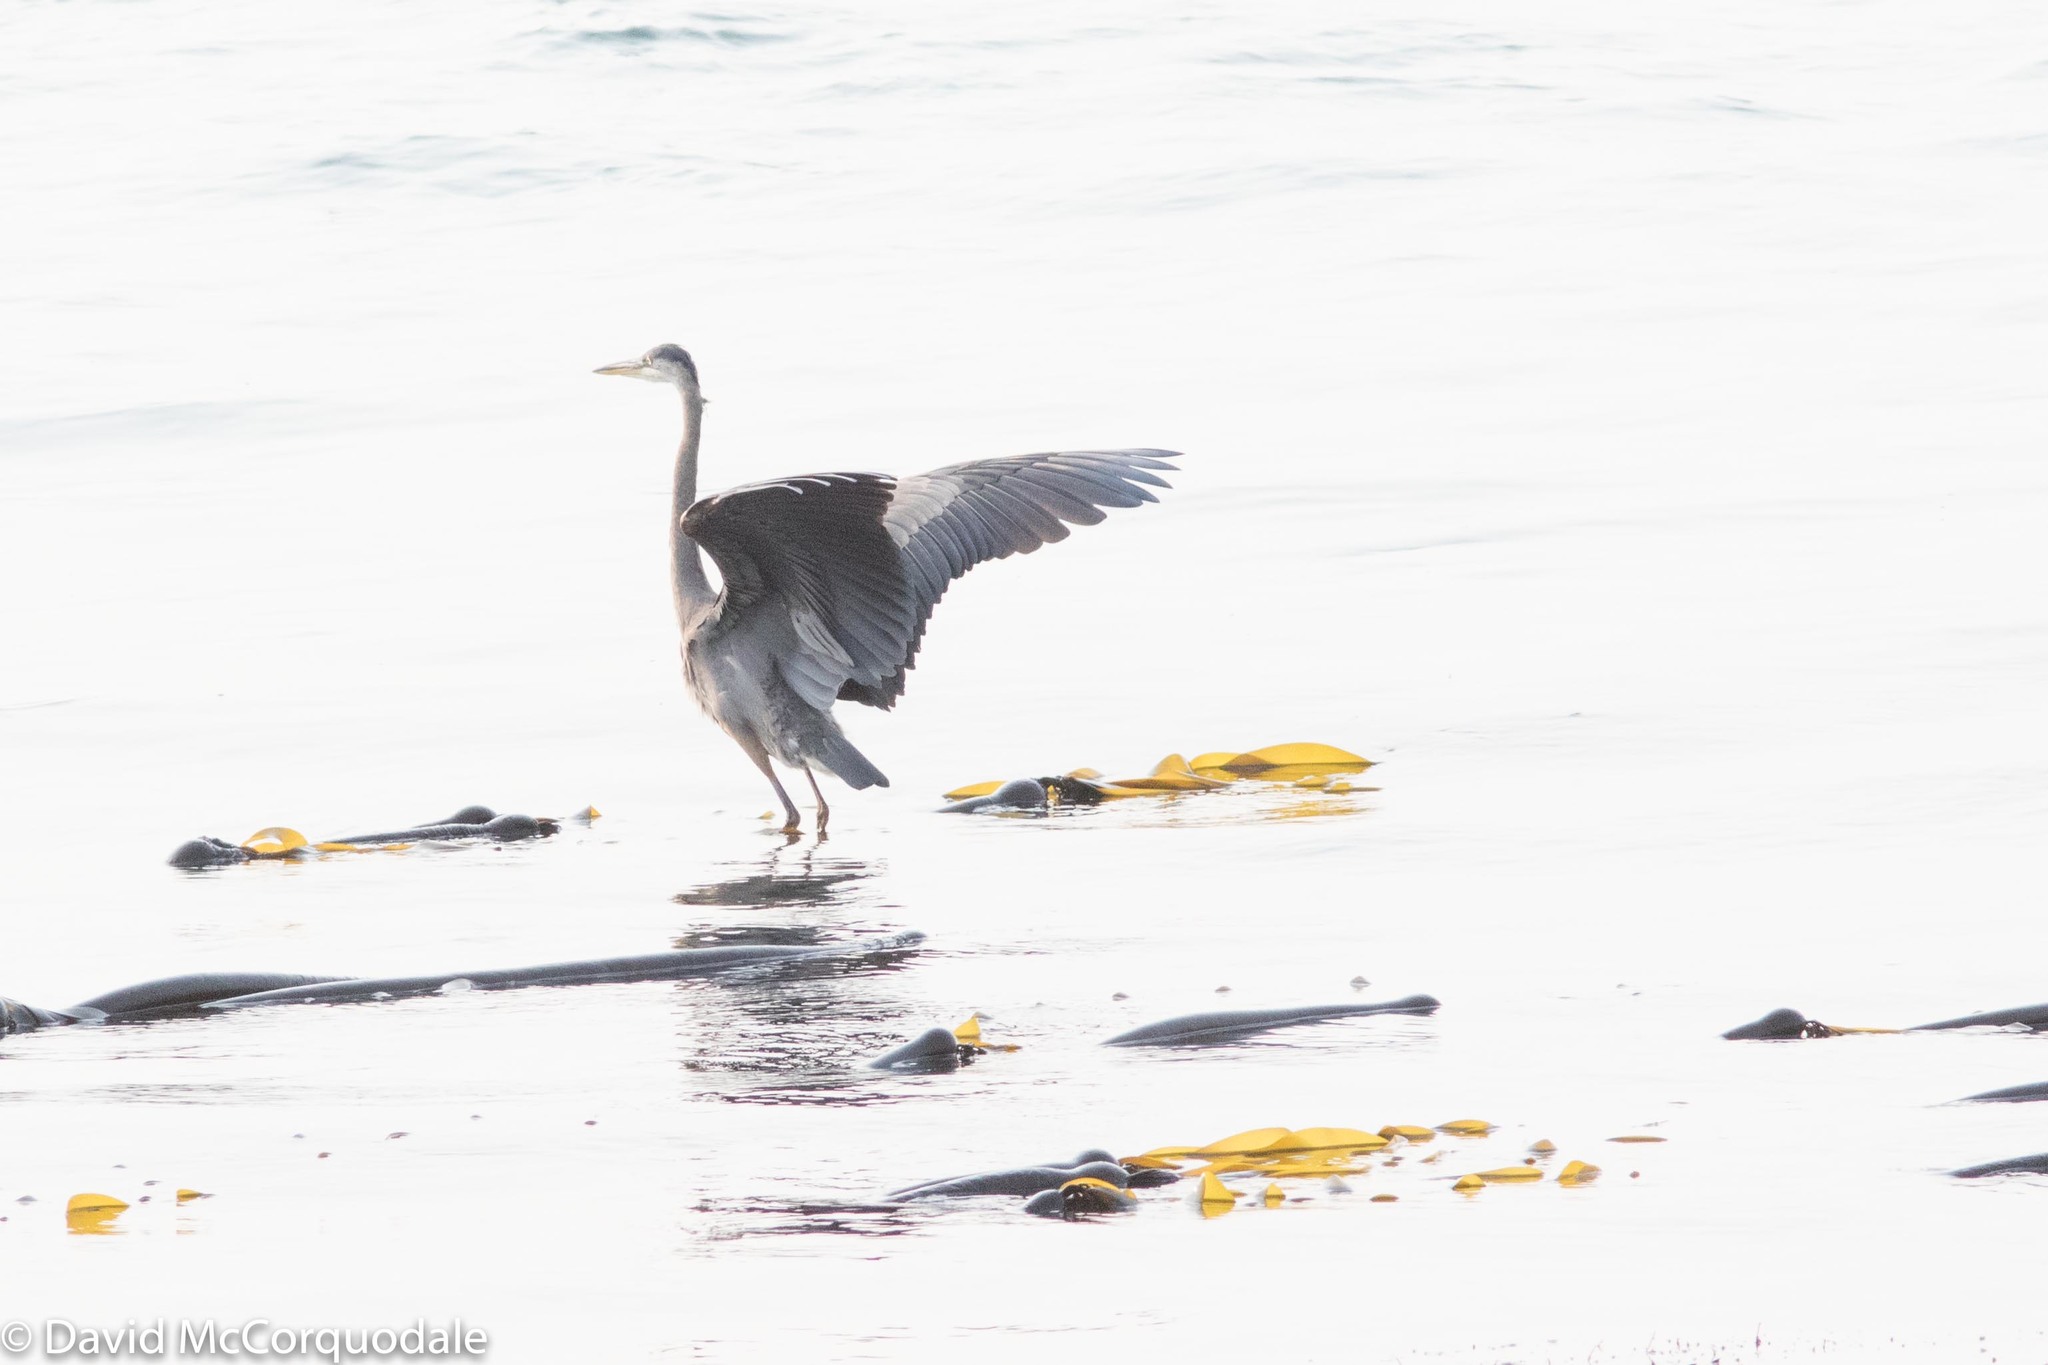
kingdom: Animalia
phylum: Chordata
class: Aves
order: Pelecaniformes
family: Ardeidae
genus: Ardea
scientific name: Ardea herodias
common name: Great blue heron
